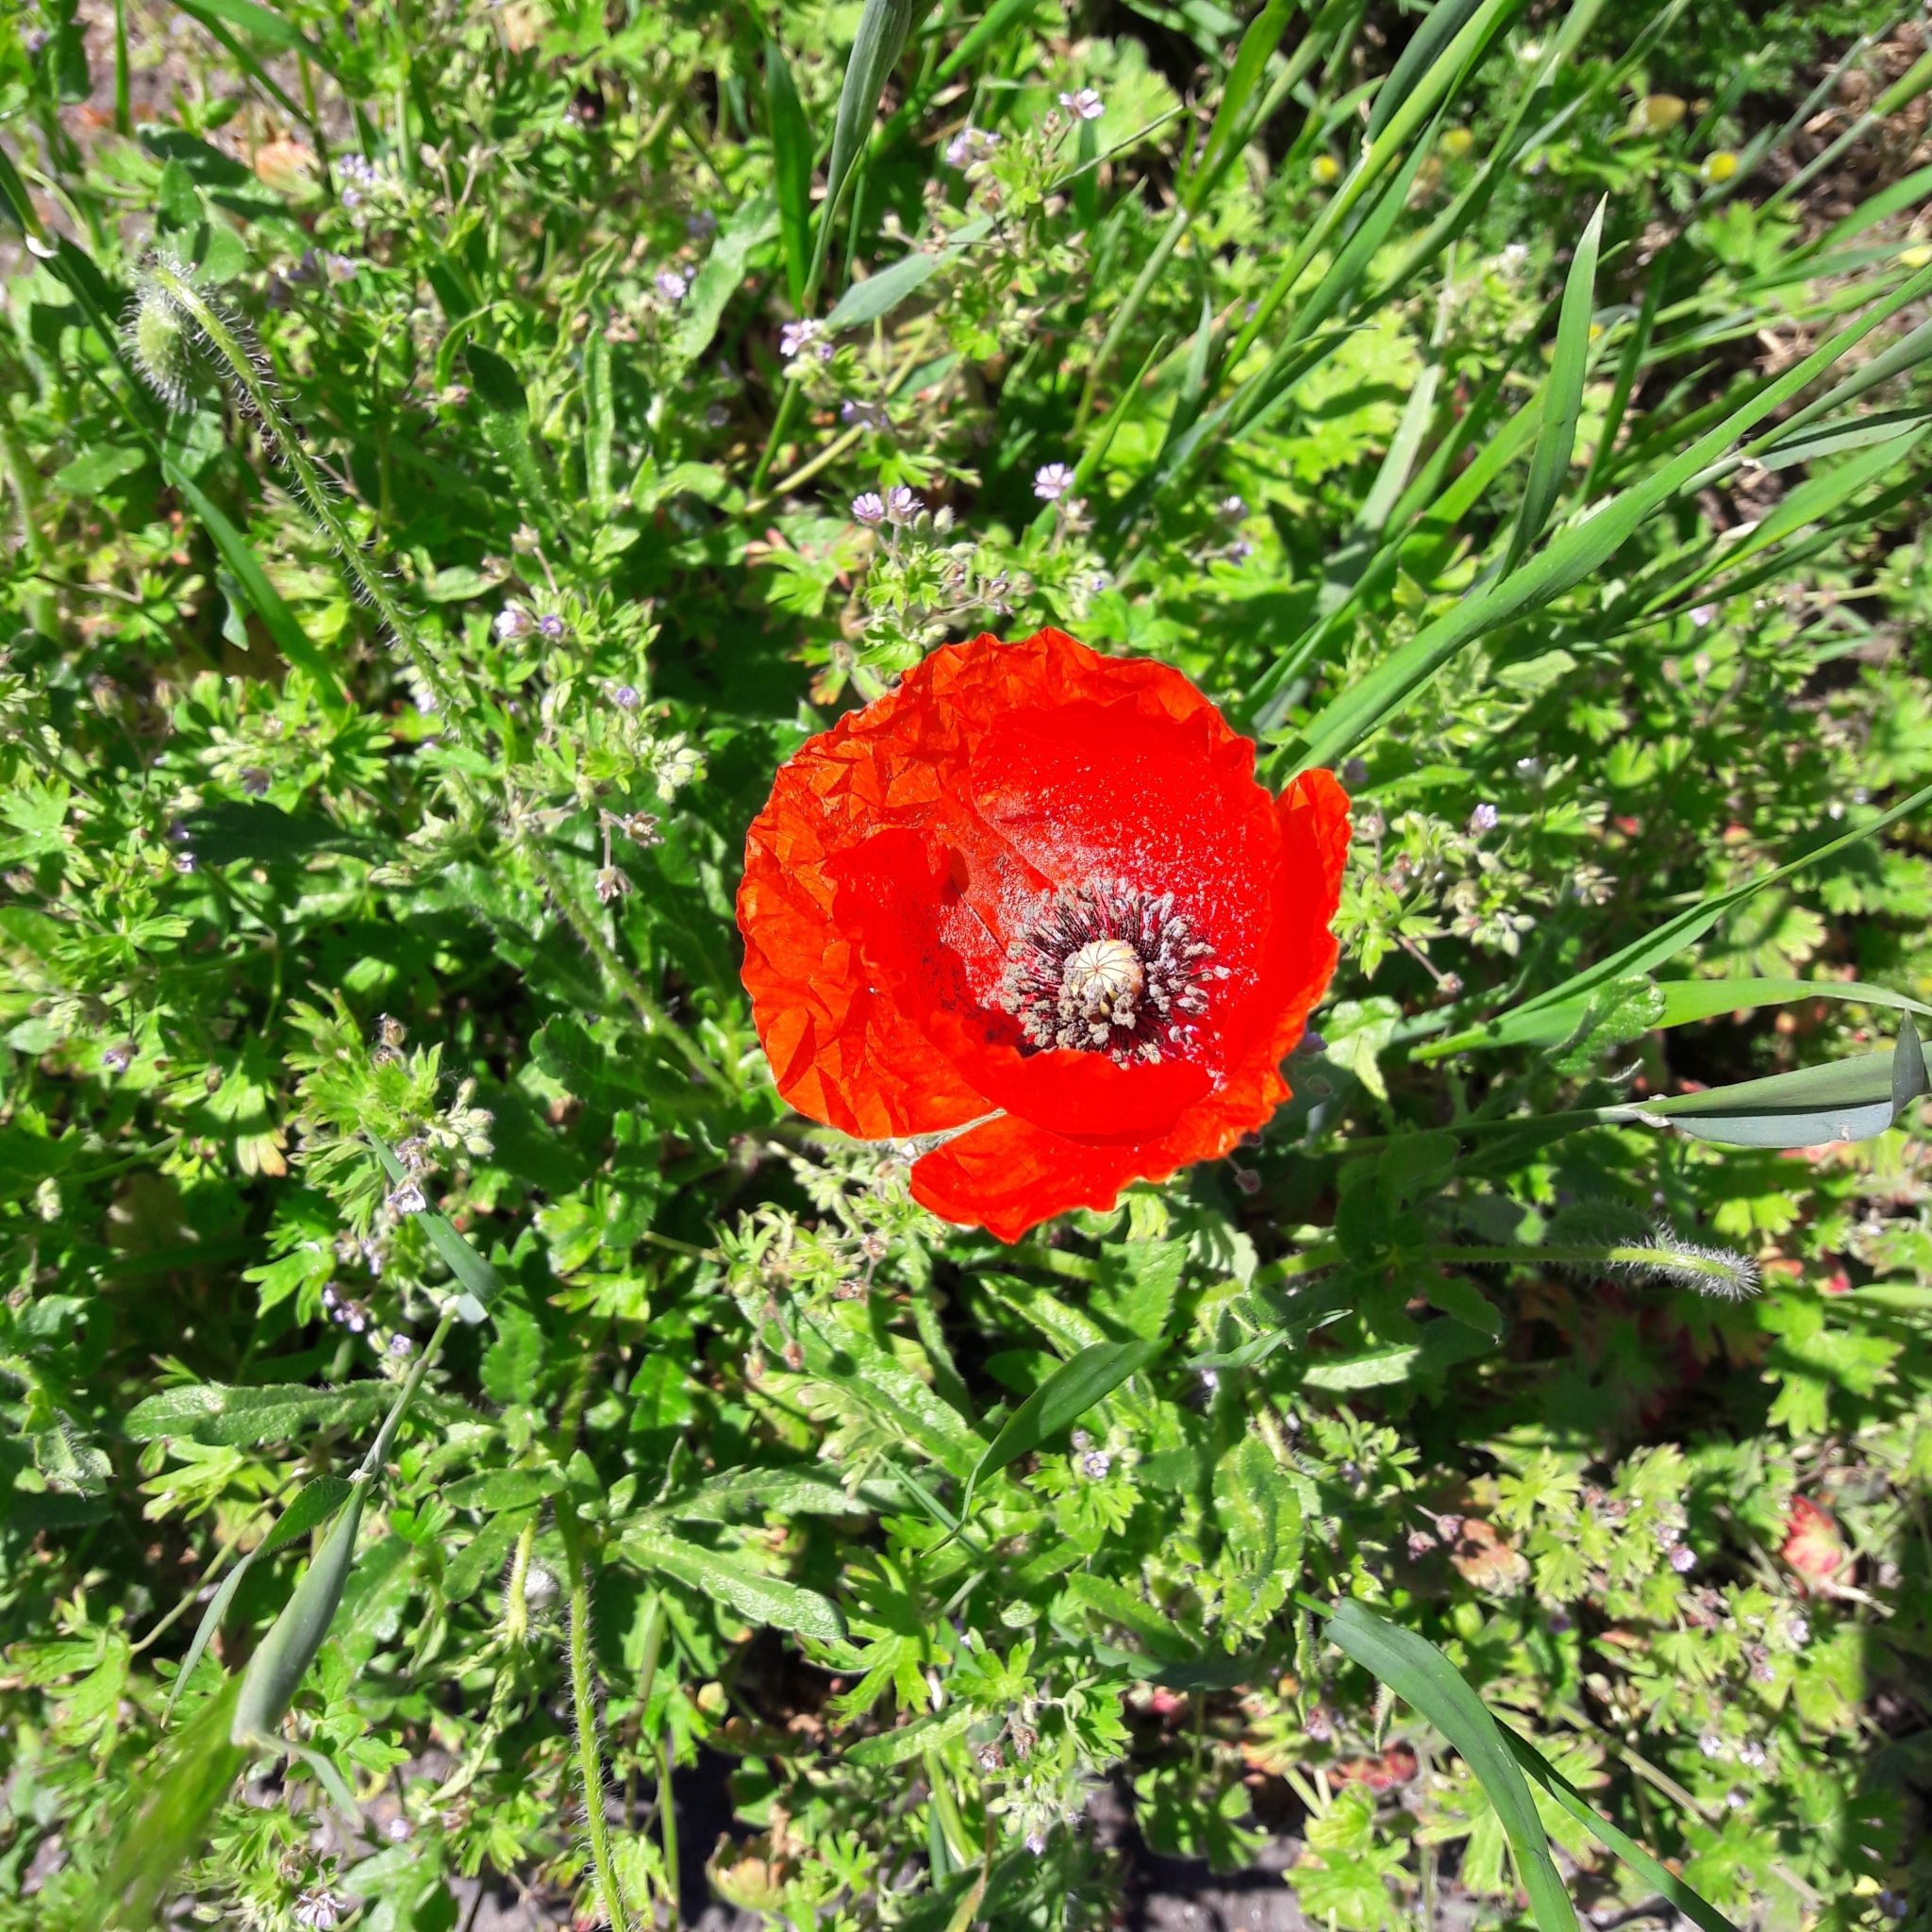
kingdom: Plantae
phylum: Tracheophyta
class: Magnoliopsida
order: Ranunculales
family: Papaveraceae
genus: Papaver
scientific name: Papaver rhoeas
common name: Corn poppy
